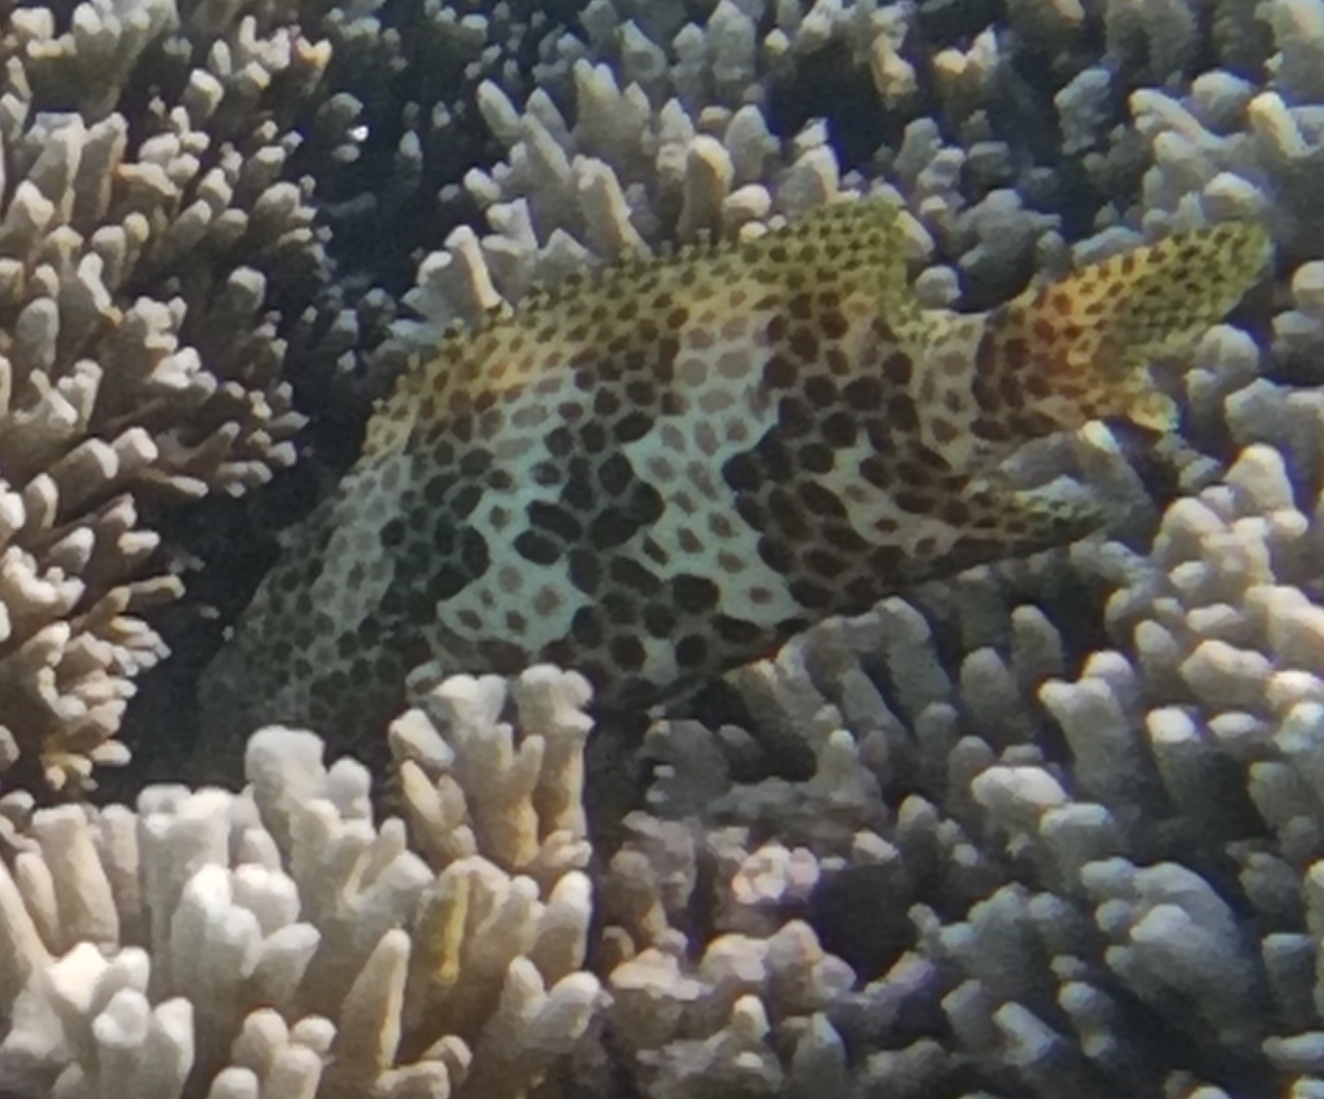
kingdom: Animalia
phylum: Chordata
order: Perciformes
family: Serranidae
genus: Epinephelus
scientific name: Epinephelus merra
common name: Honeycomb grouper
